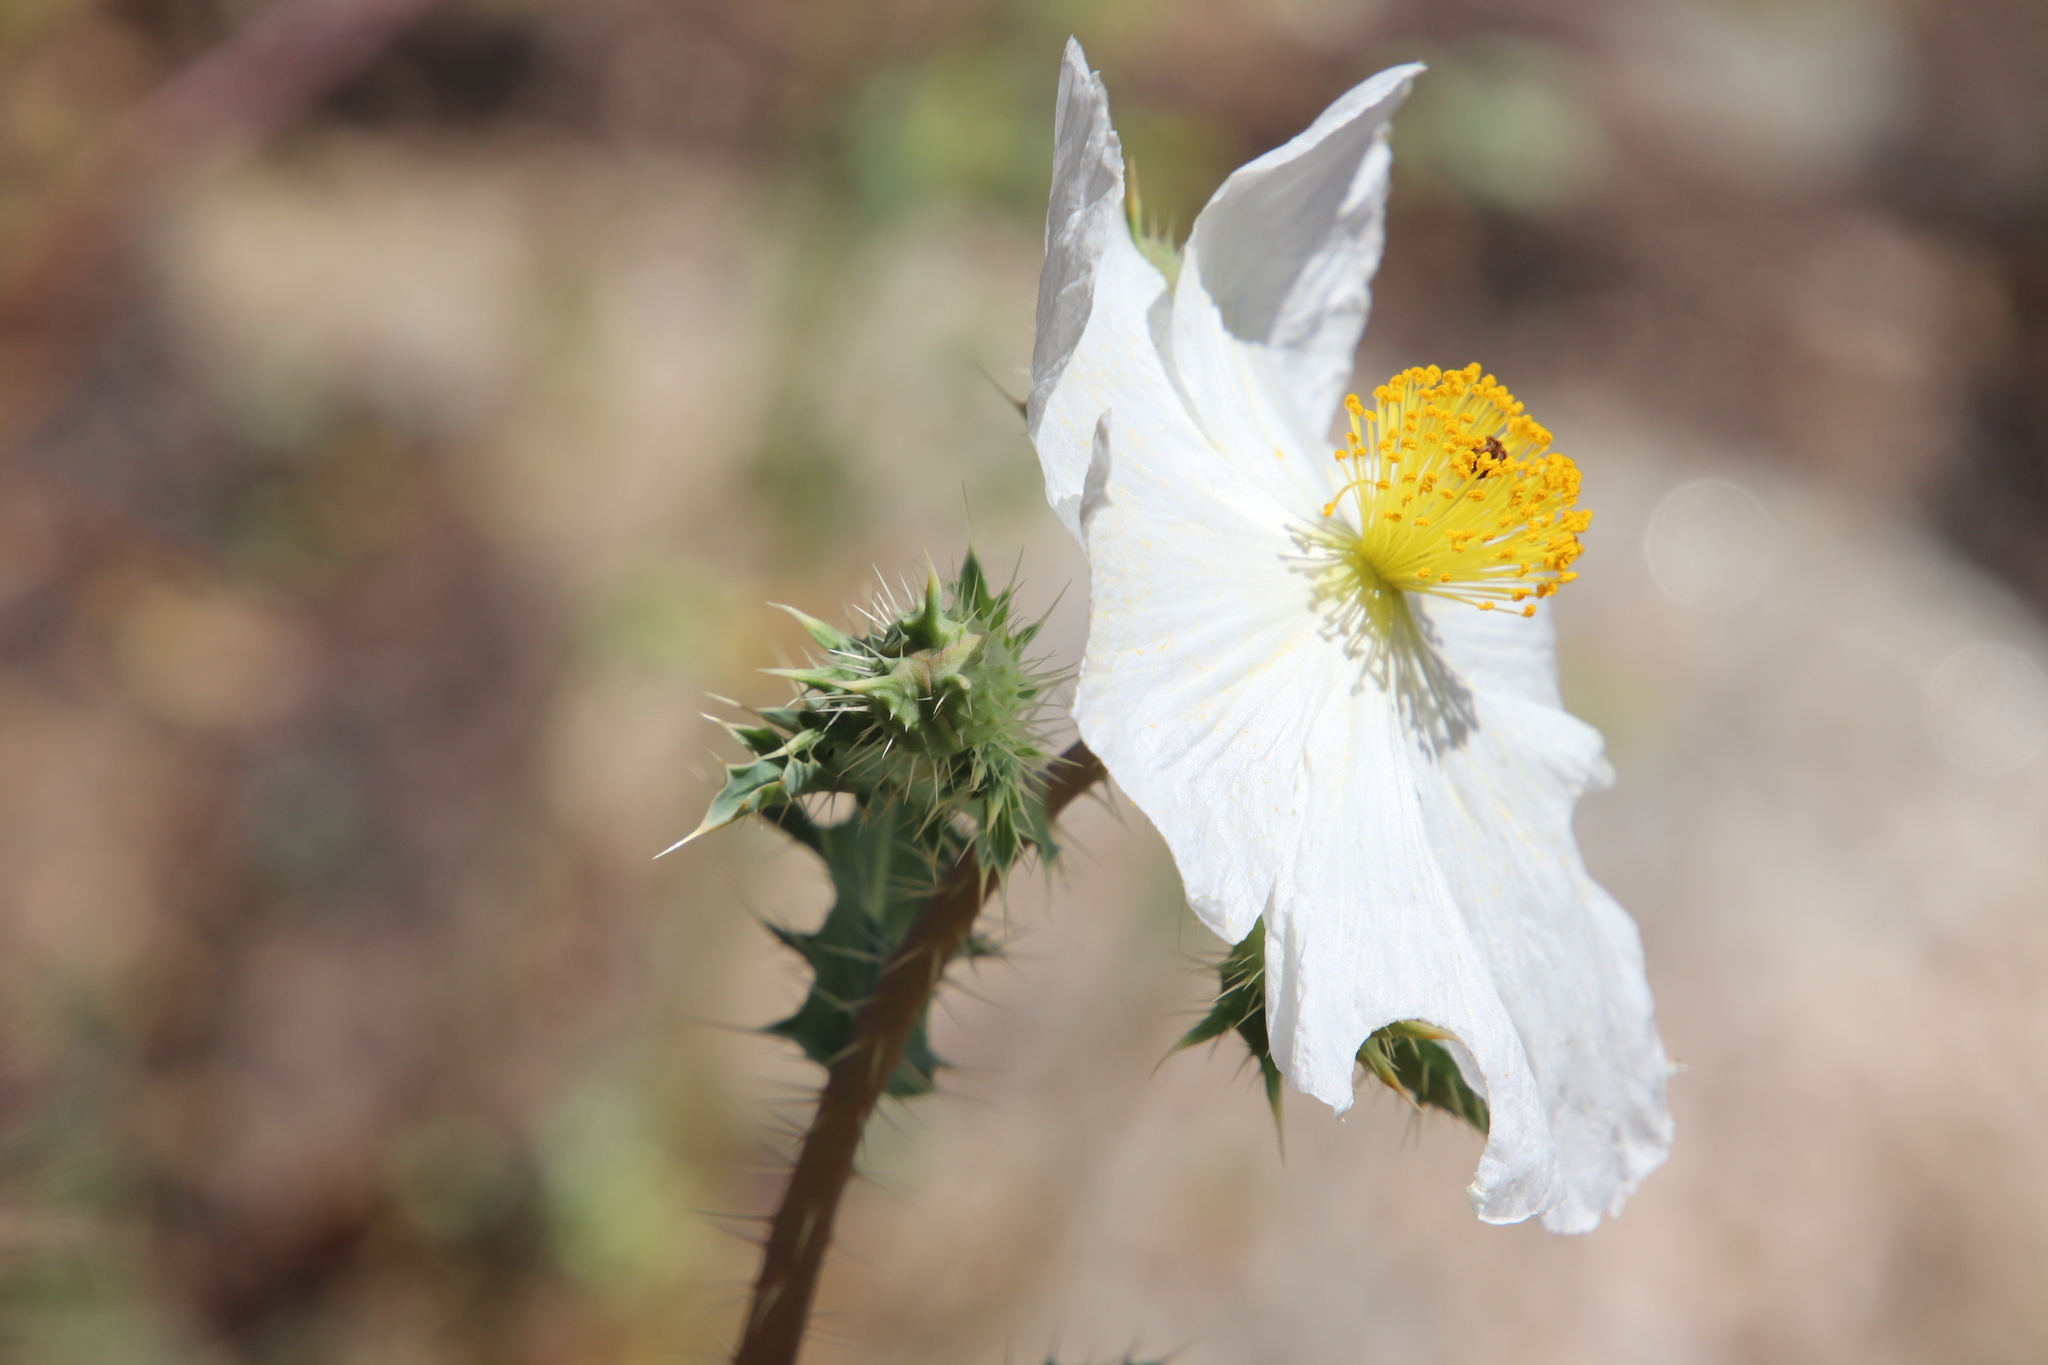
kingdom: Plantae
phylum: Tracheophyta
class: Magnoliopsida
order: Ranunculales
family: Papaveraceae
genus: Argemone
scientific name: Argemone munita
